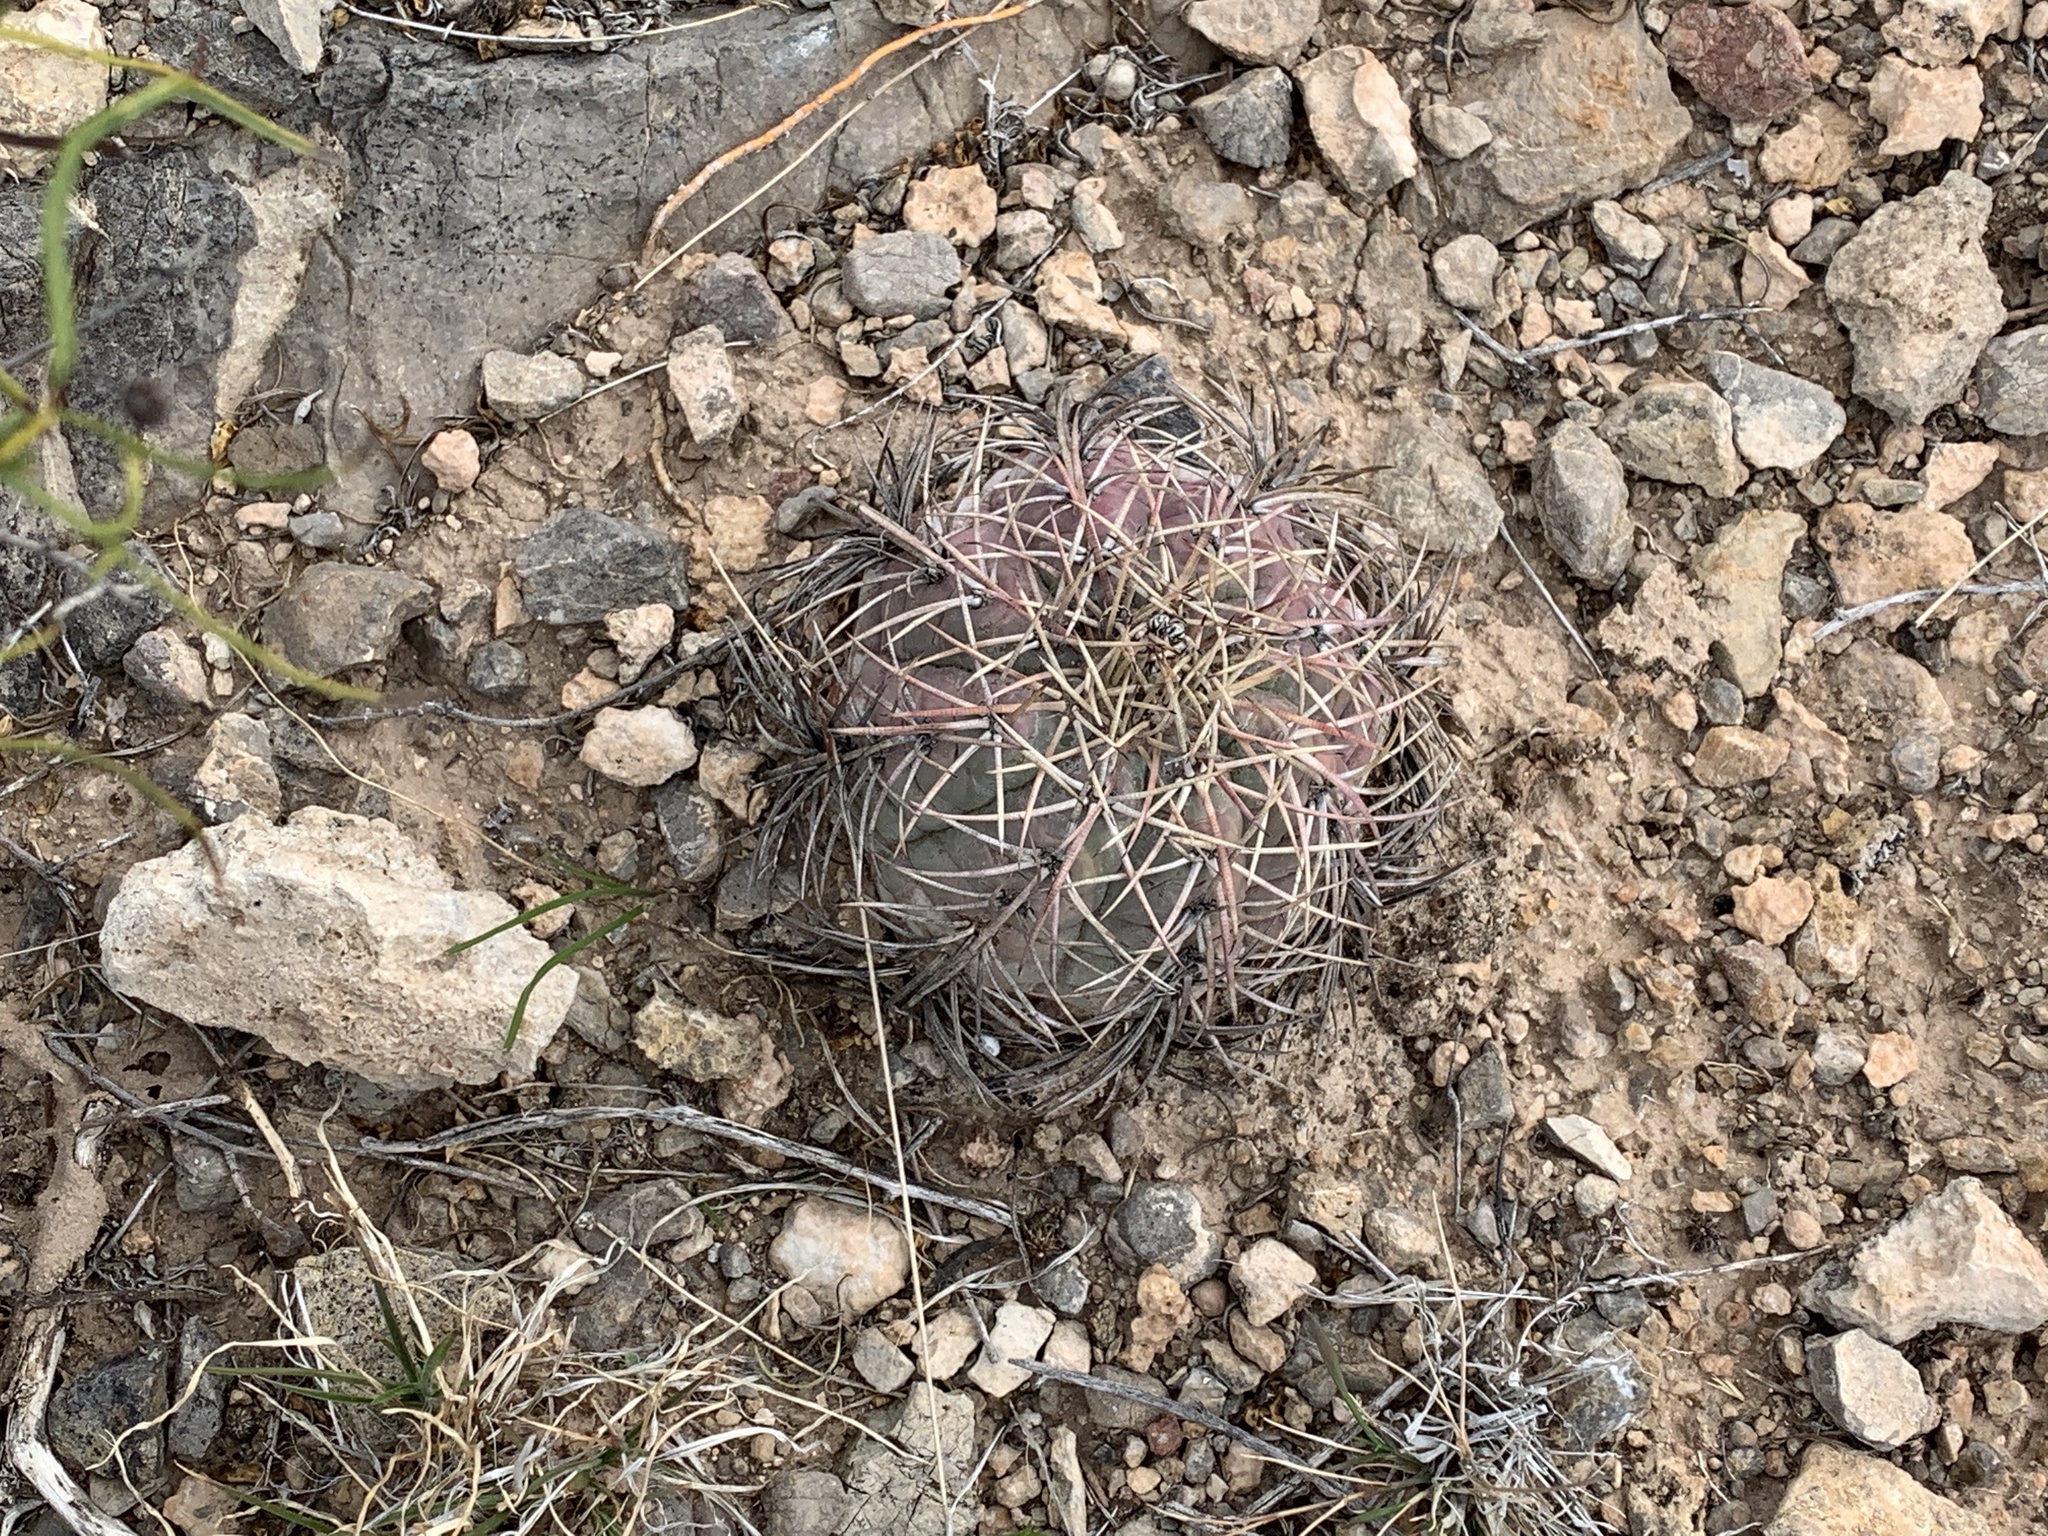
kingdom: Plantae
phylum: Tracheophyta
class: Magnoliopsida
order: Caryophyllales
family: Cactaceae
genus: Echinocactus
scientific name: Echinocactus horizonthalonius
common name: Devilshead
